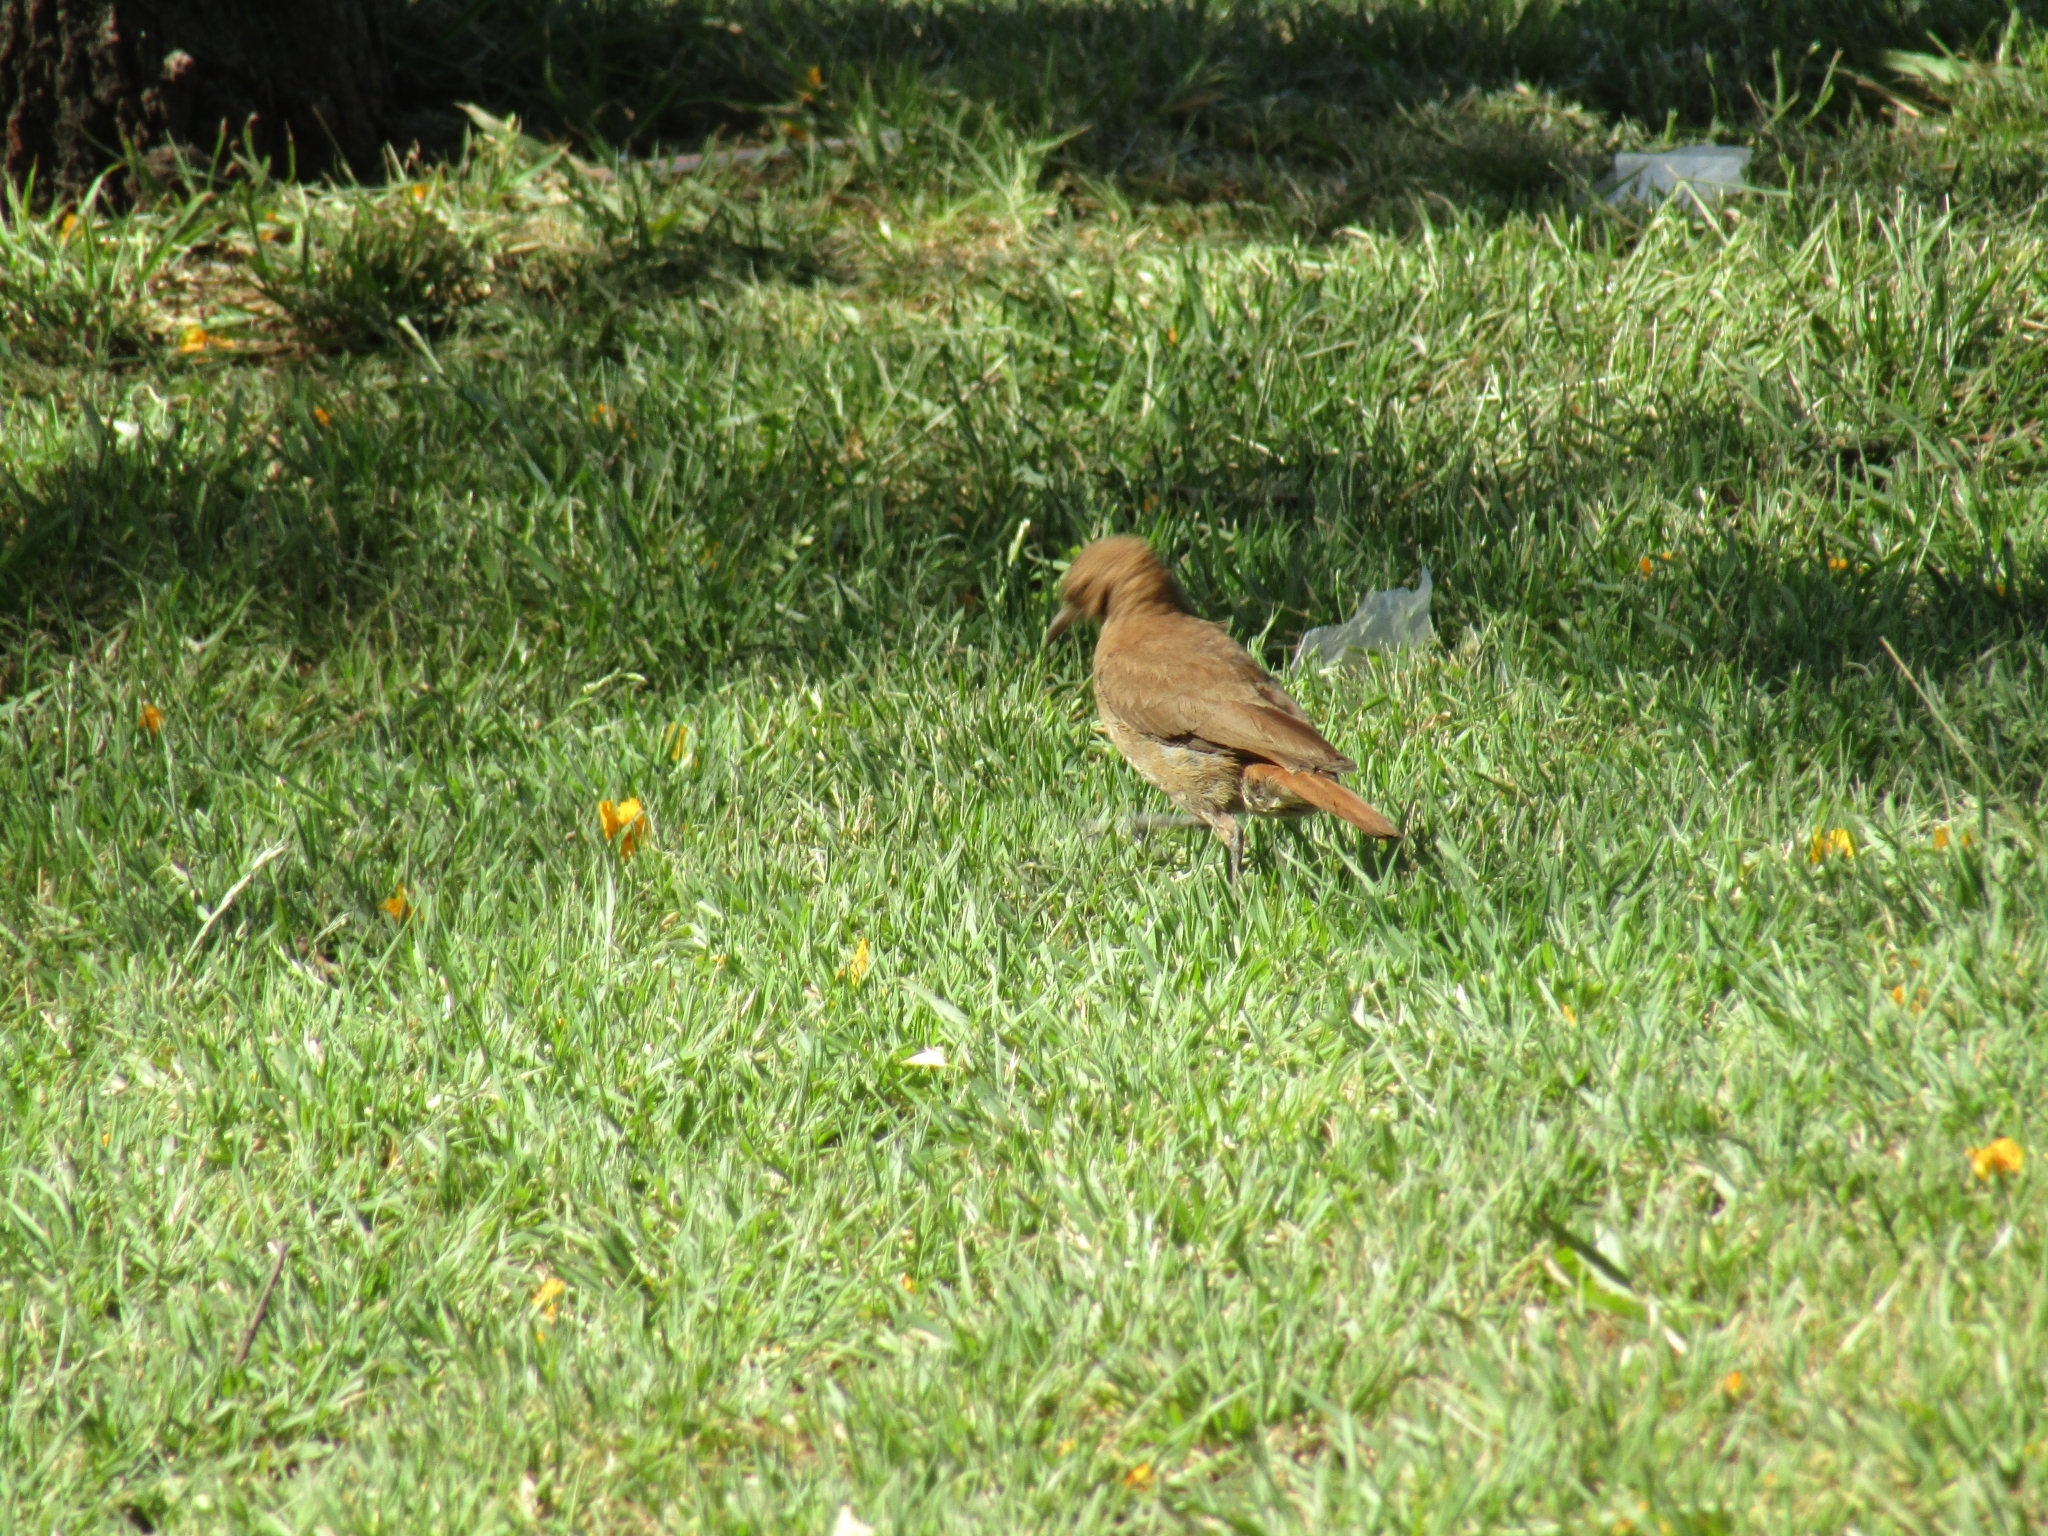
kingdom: Animalia
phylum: Chordata
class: Aves
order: Passeriformes
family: Furnariidae
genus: Furnarius
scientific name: Furnarius rufus
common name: Rufous hornero
